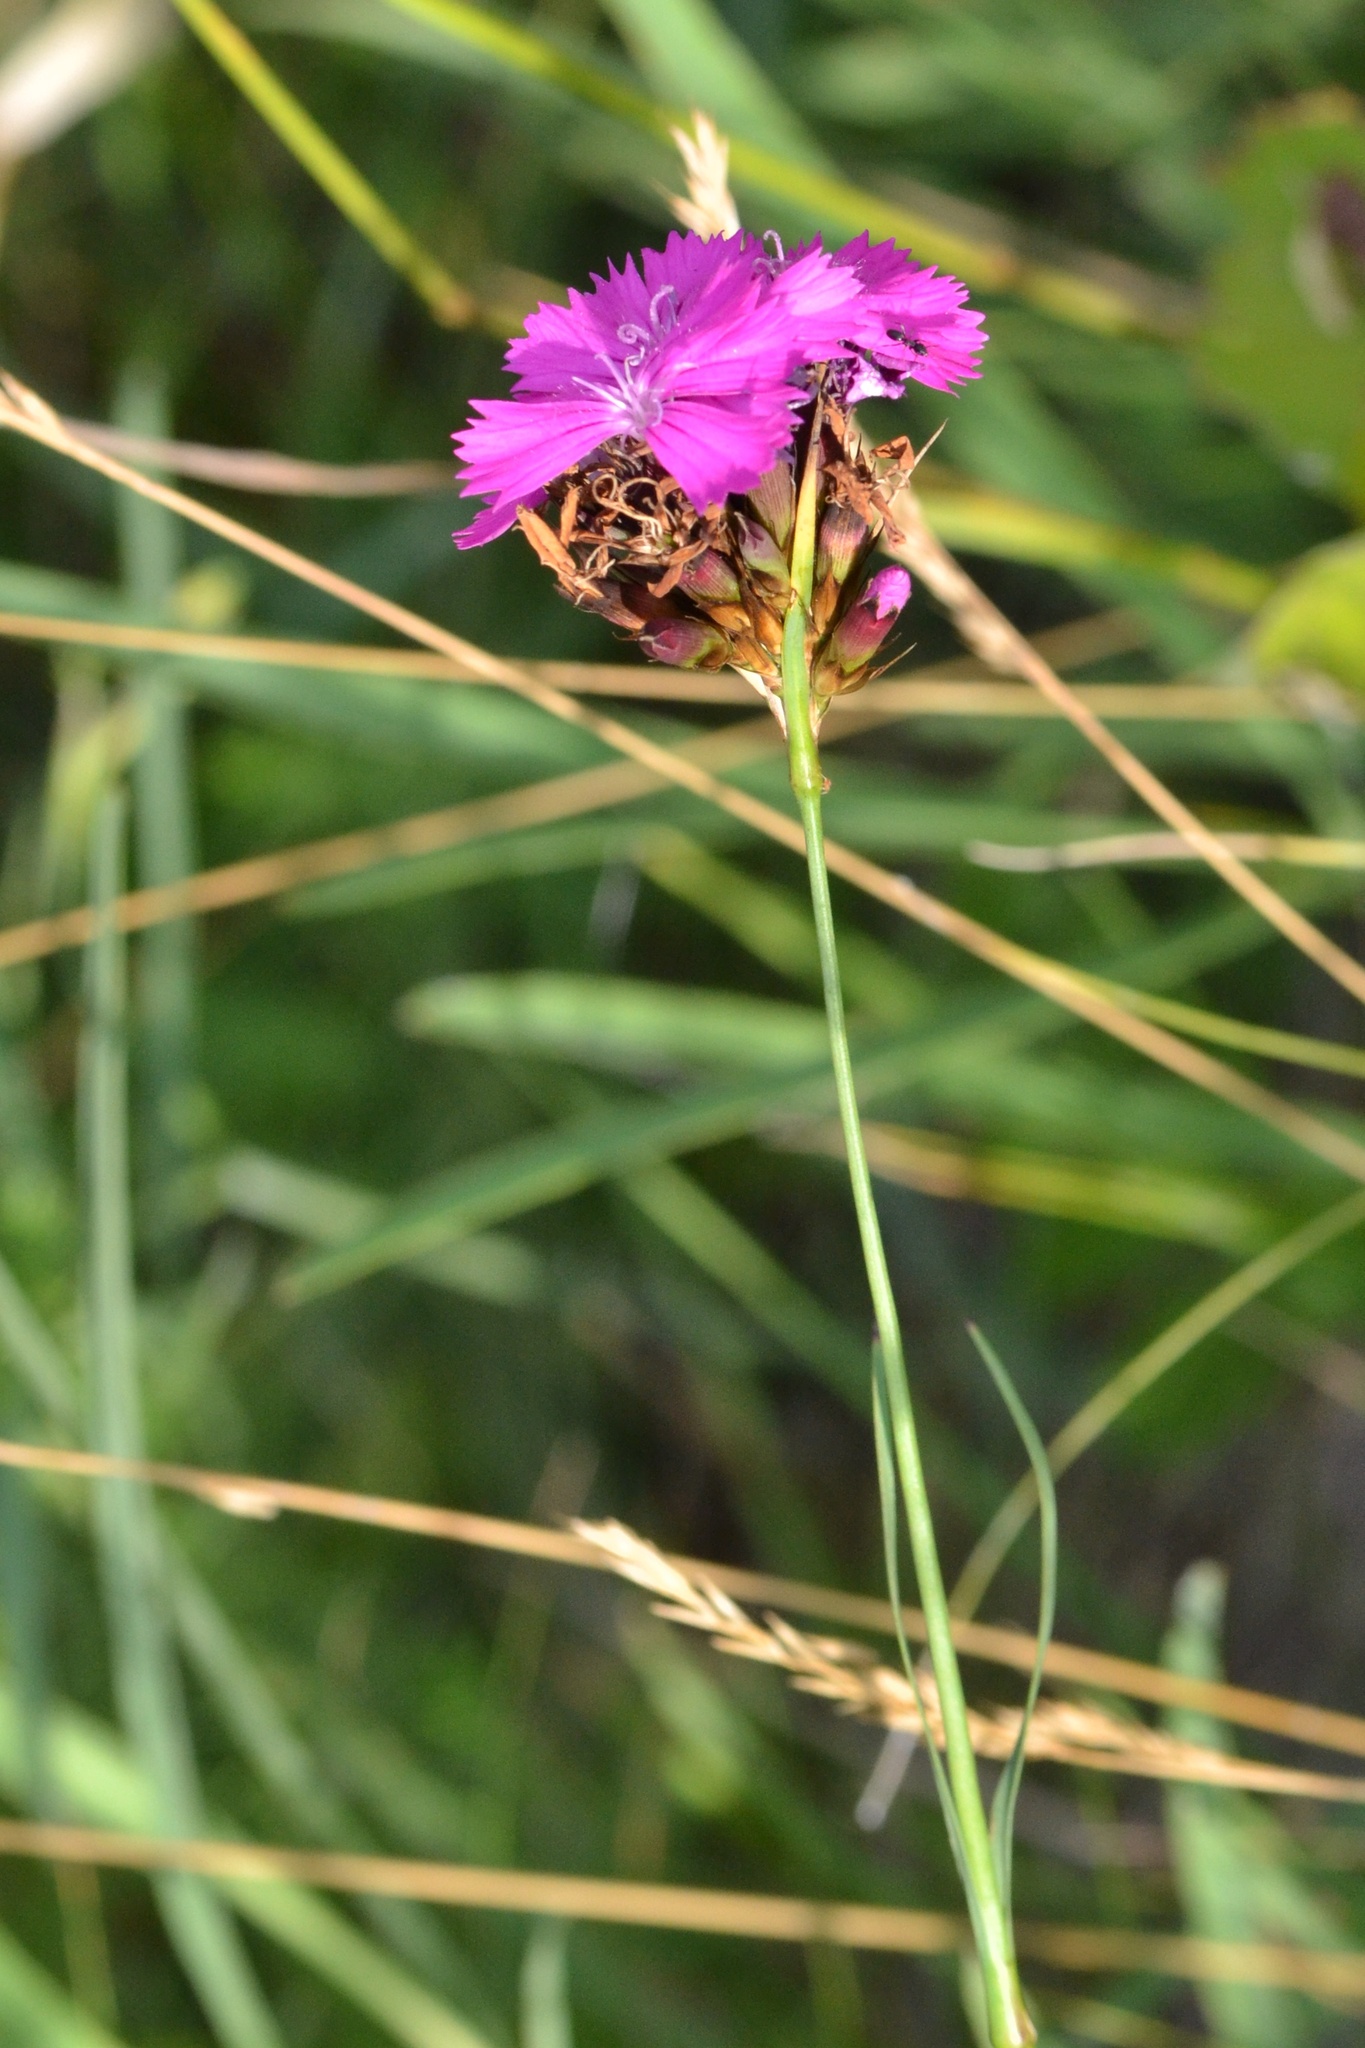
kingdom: Plantae
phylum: Tracheophyta
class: Magnoliopsida
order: Caryophyllales
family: Caryophyllaceae
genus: Dianthus
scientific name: Dianthus carthusianorum
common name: Carthusian pink
